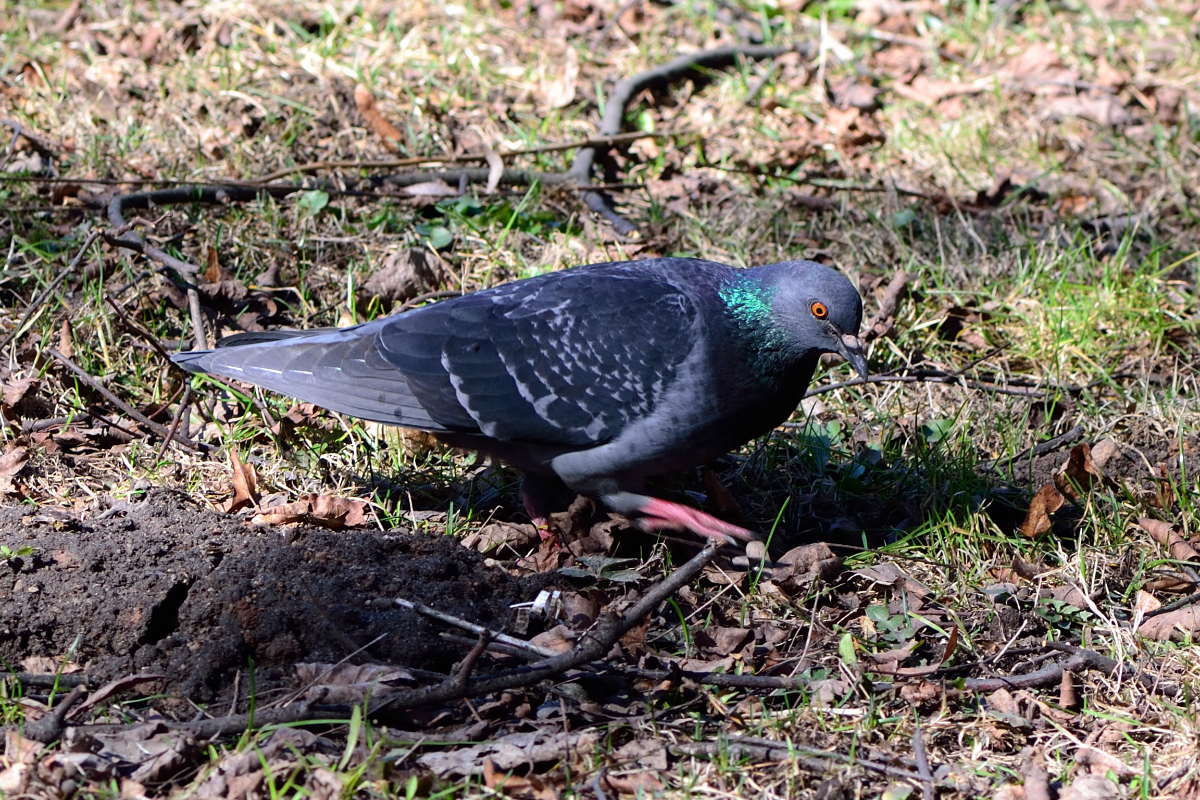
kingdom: Animalia
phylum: Chordata
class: Aves
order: Columbiformes
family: Columbidae
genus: Columba
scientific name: Columba livia
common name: Rock pigeon
